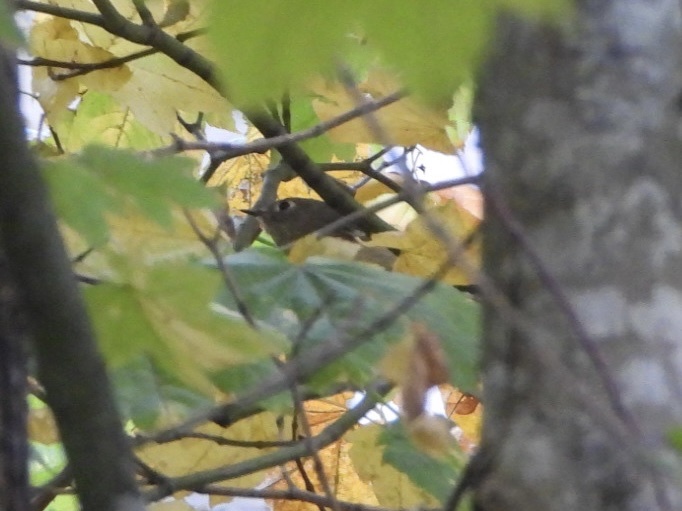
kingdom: Animalia
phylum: Chordata
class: Aves
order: Passeriformes
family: Regulidae
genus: Regulus
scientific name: Regulus calendula
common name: Ruby-crowned kinglet
